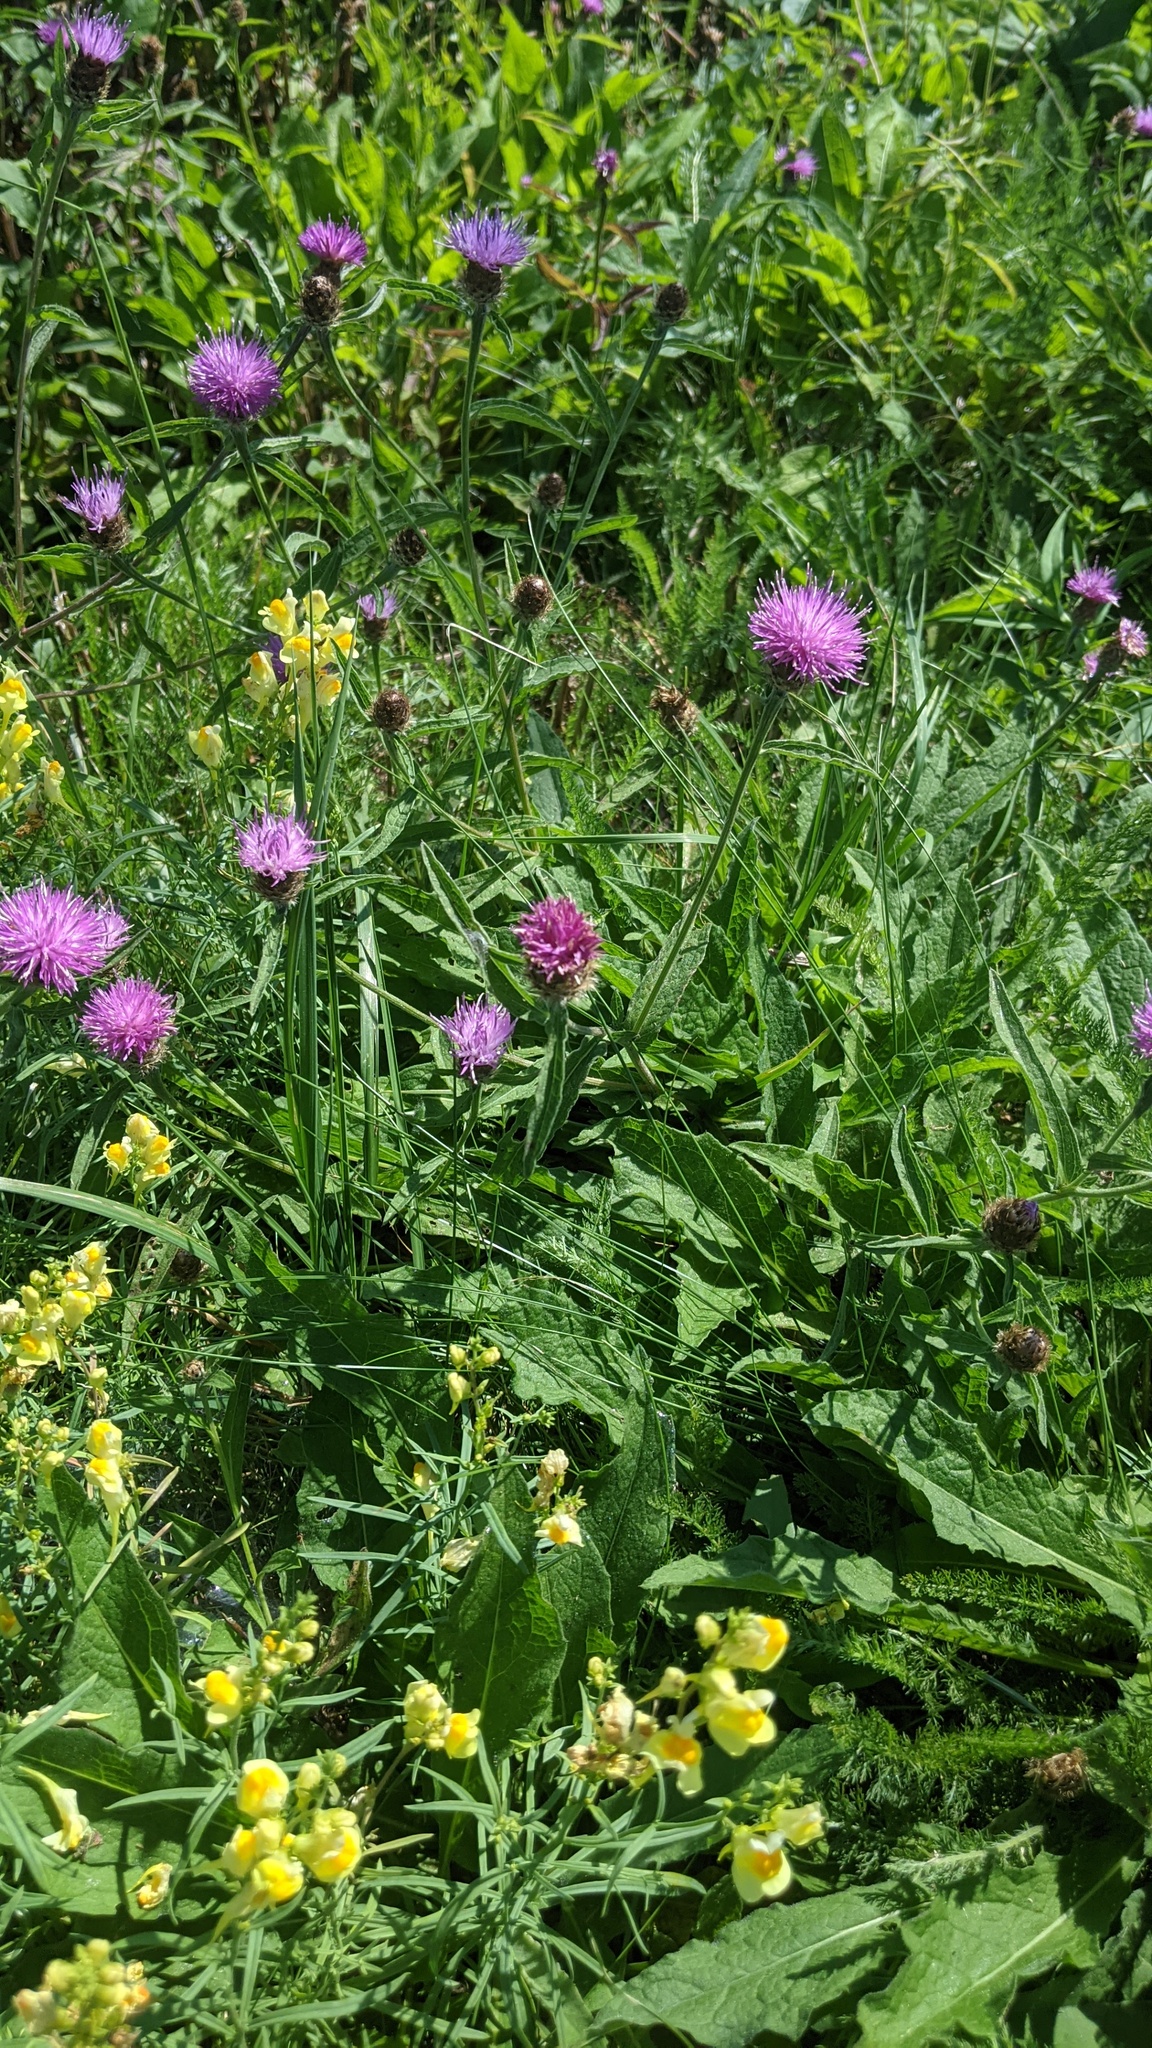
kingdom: Plantae
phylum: Tracheophyta
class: Magnoliopsida
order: Asterales
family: Asteraceae
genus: Centaurea
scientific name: Centaurea nigra
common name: Lesser knapweed
